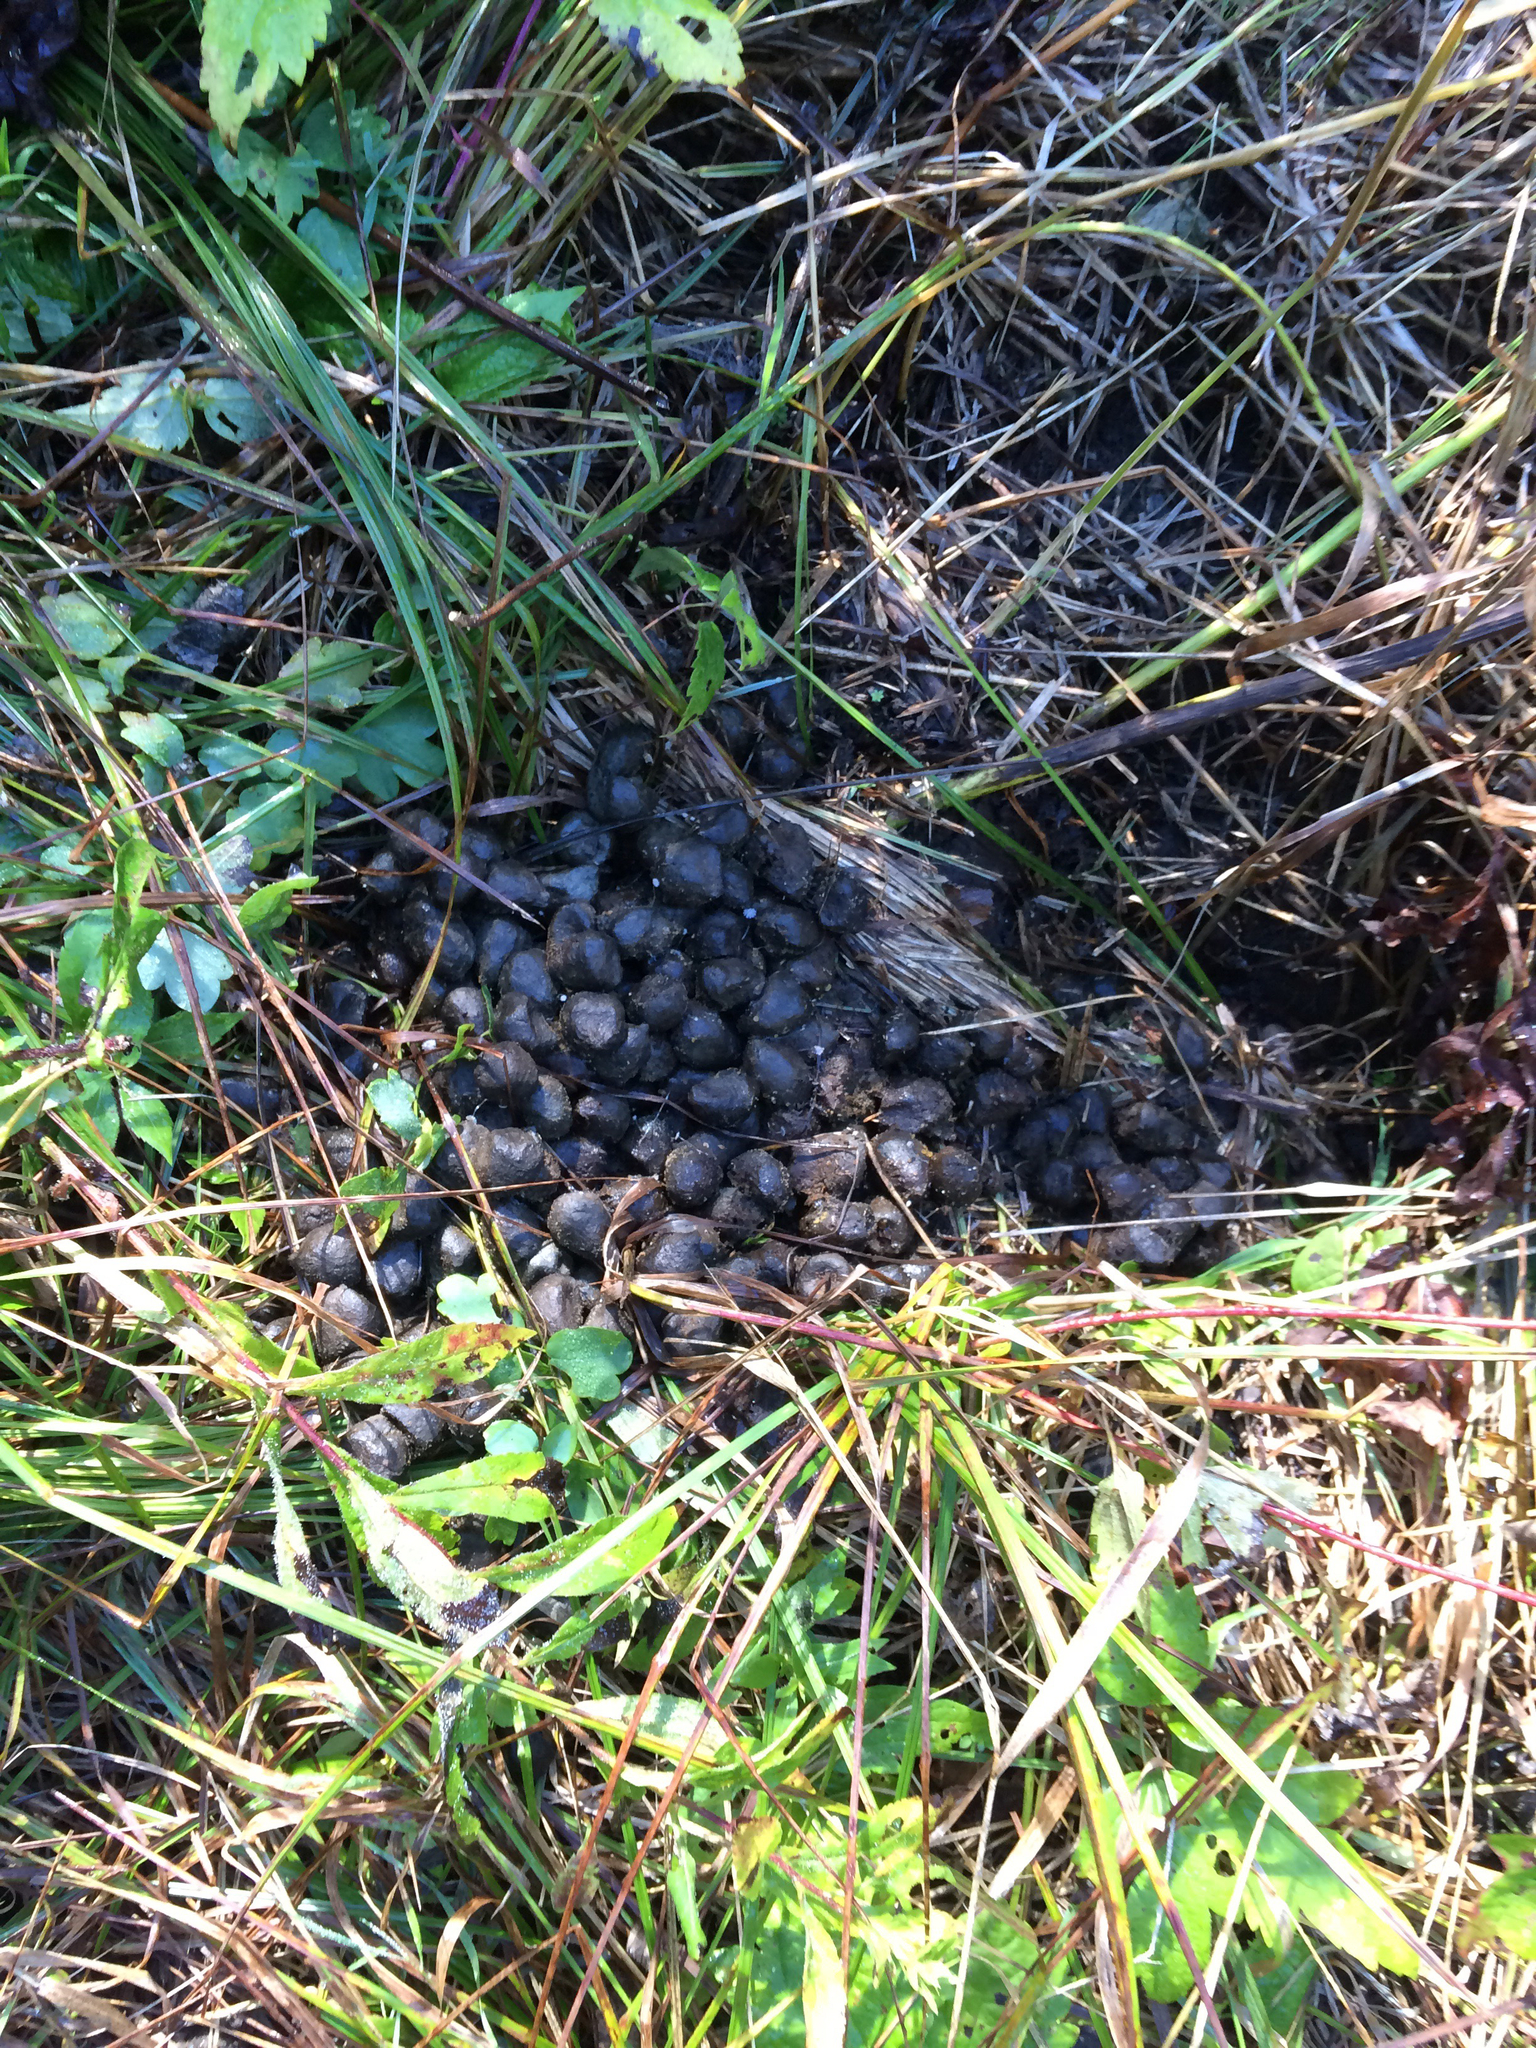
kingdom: Animalia
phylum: Chordata
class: Mammalia
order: Artiodactyla
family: Cervidae
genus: Alces
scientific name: Alces alces
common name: Moose
